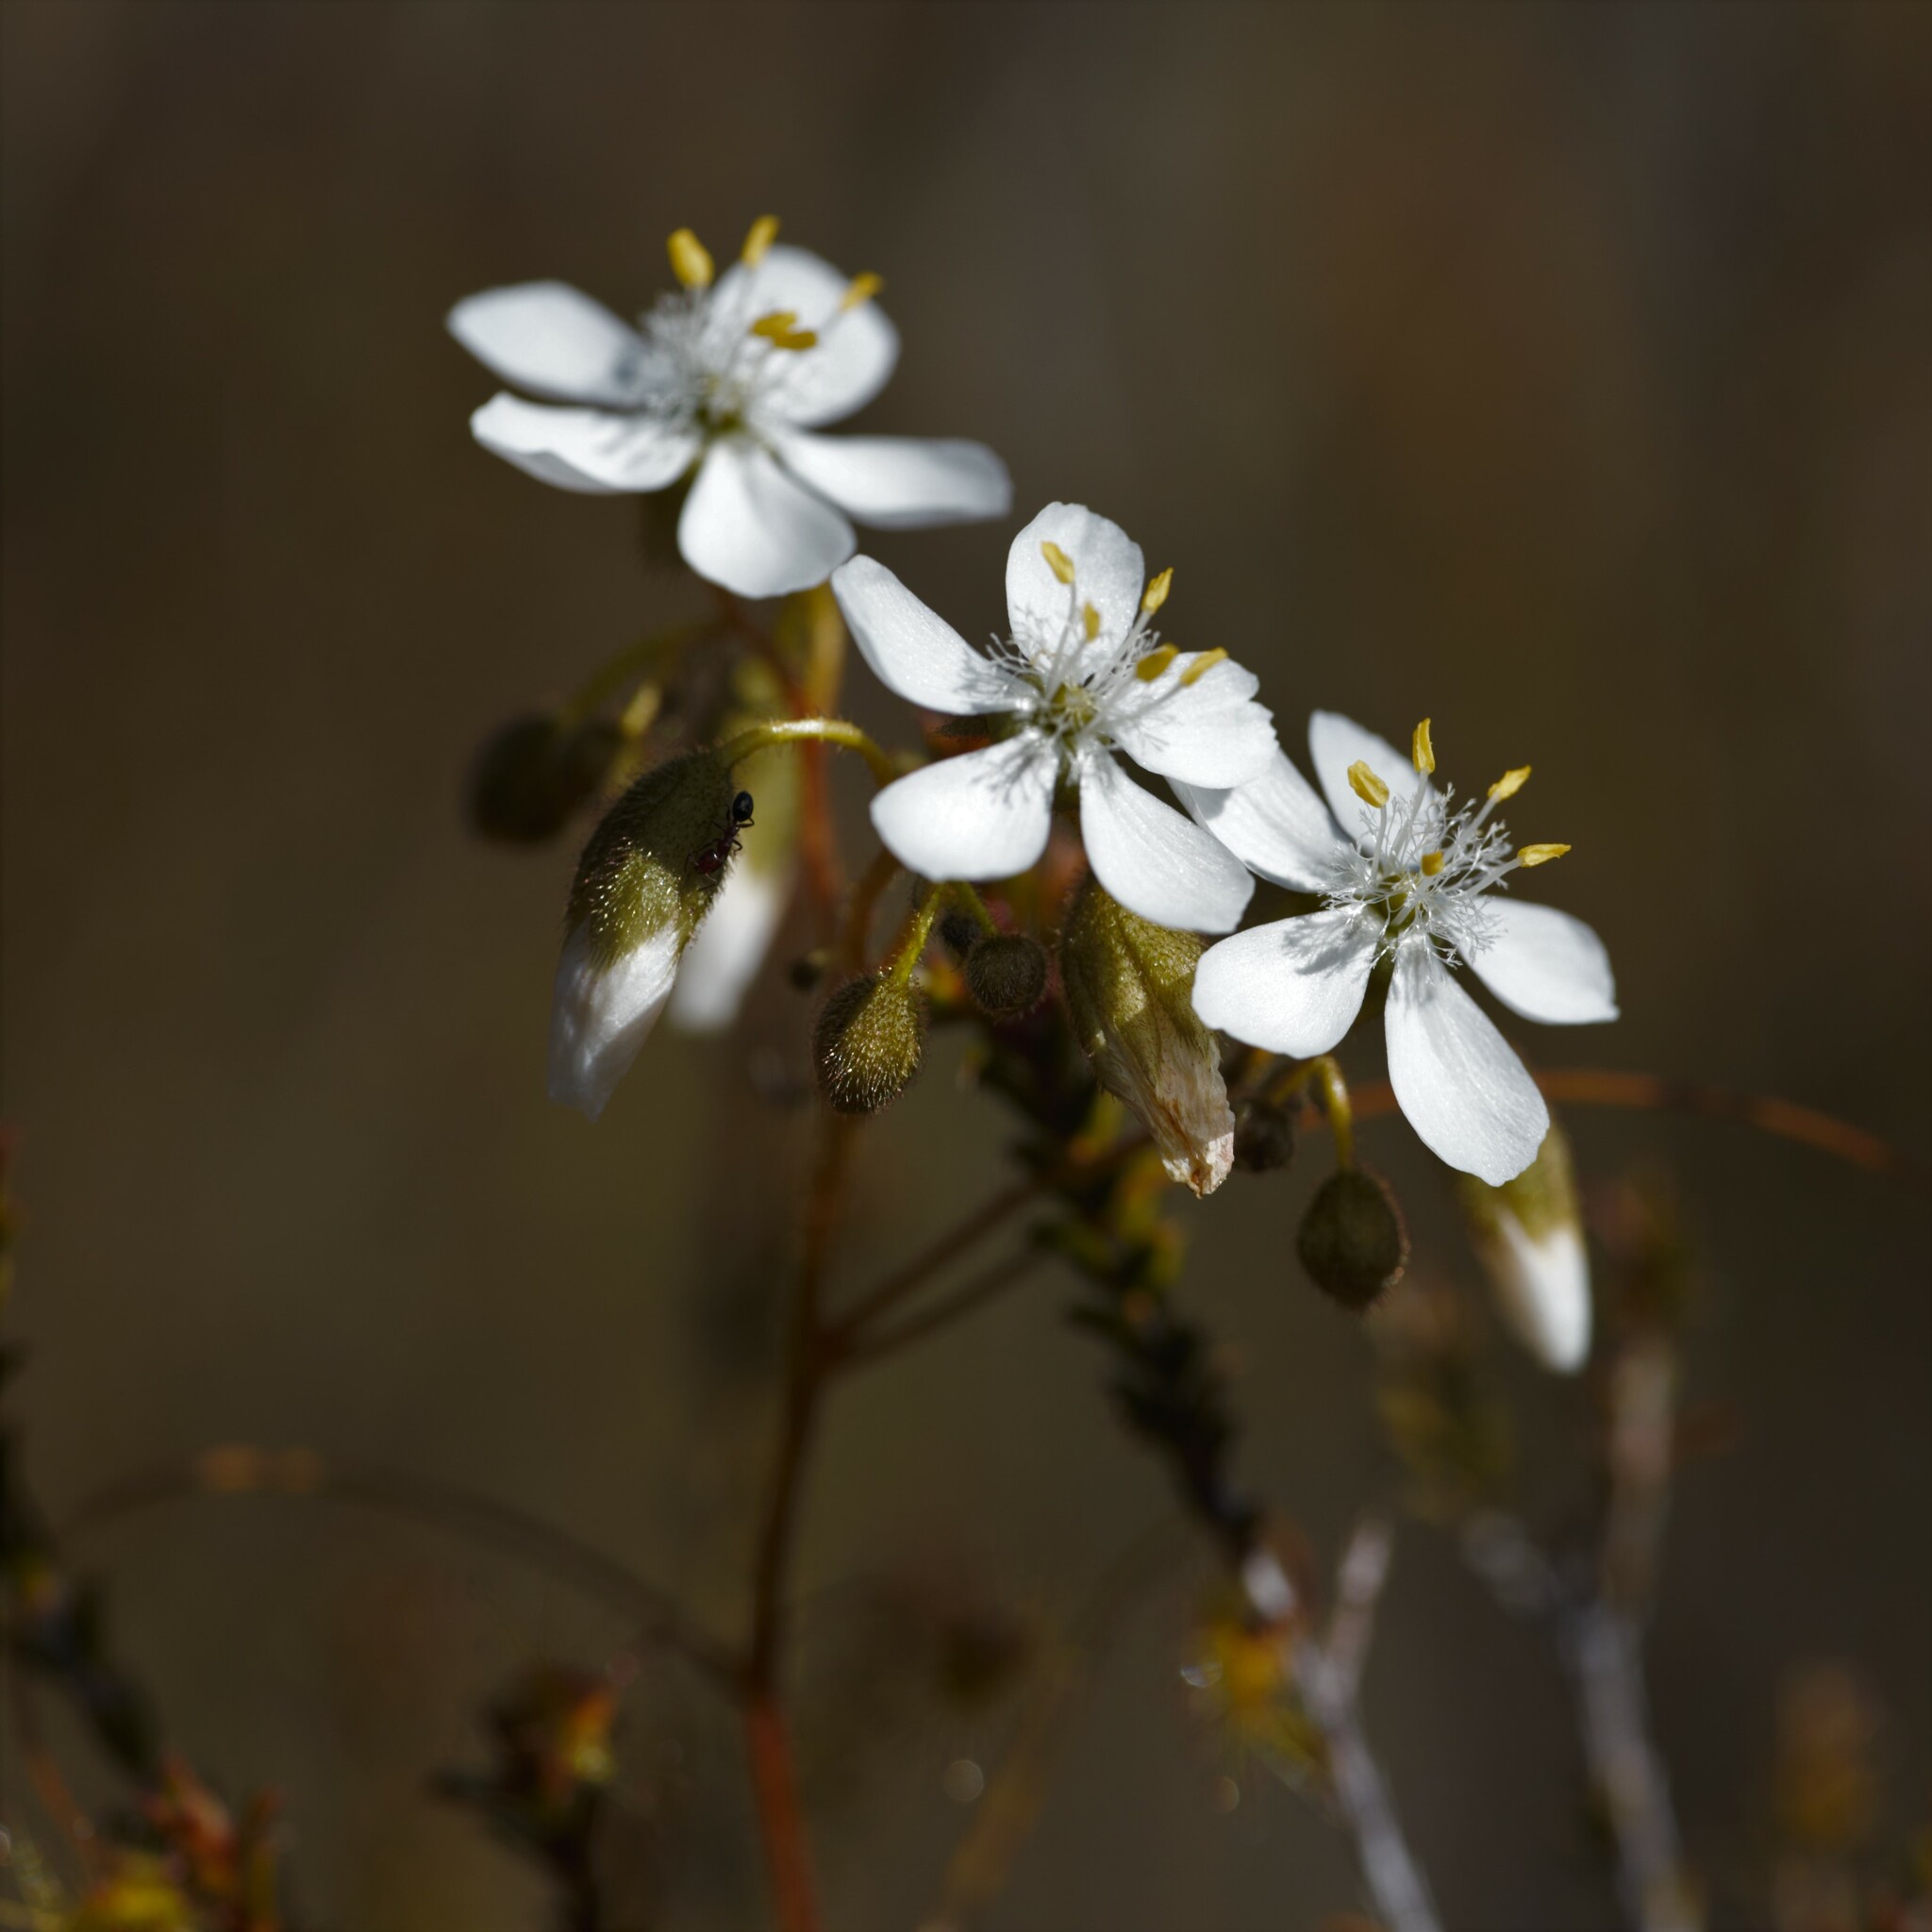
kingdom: Plantae
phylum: Tracheophyta
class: Magnoliopsida
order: Caryophyllales
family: Droseraceae
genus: Drosera
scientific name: Drosera macrantha
